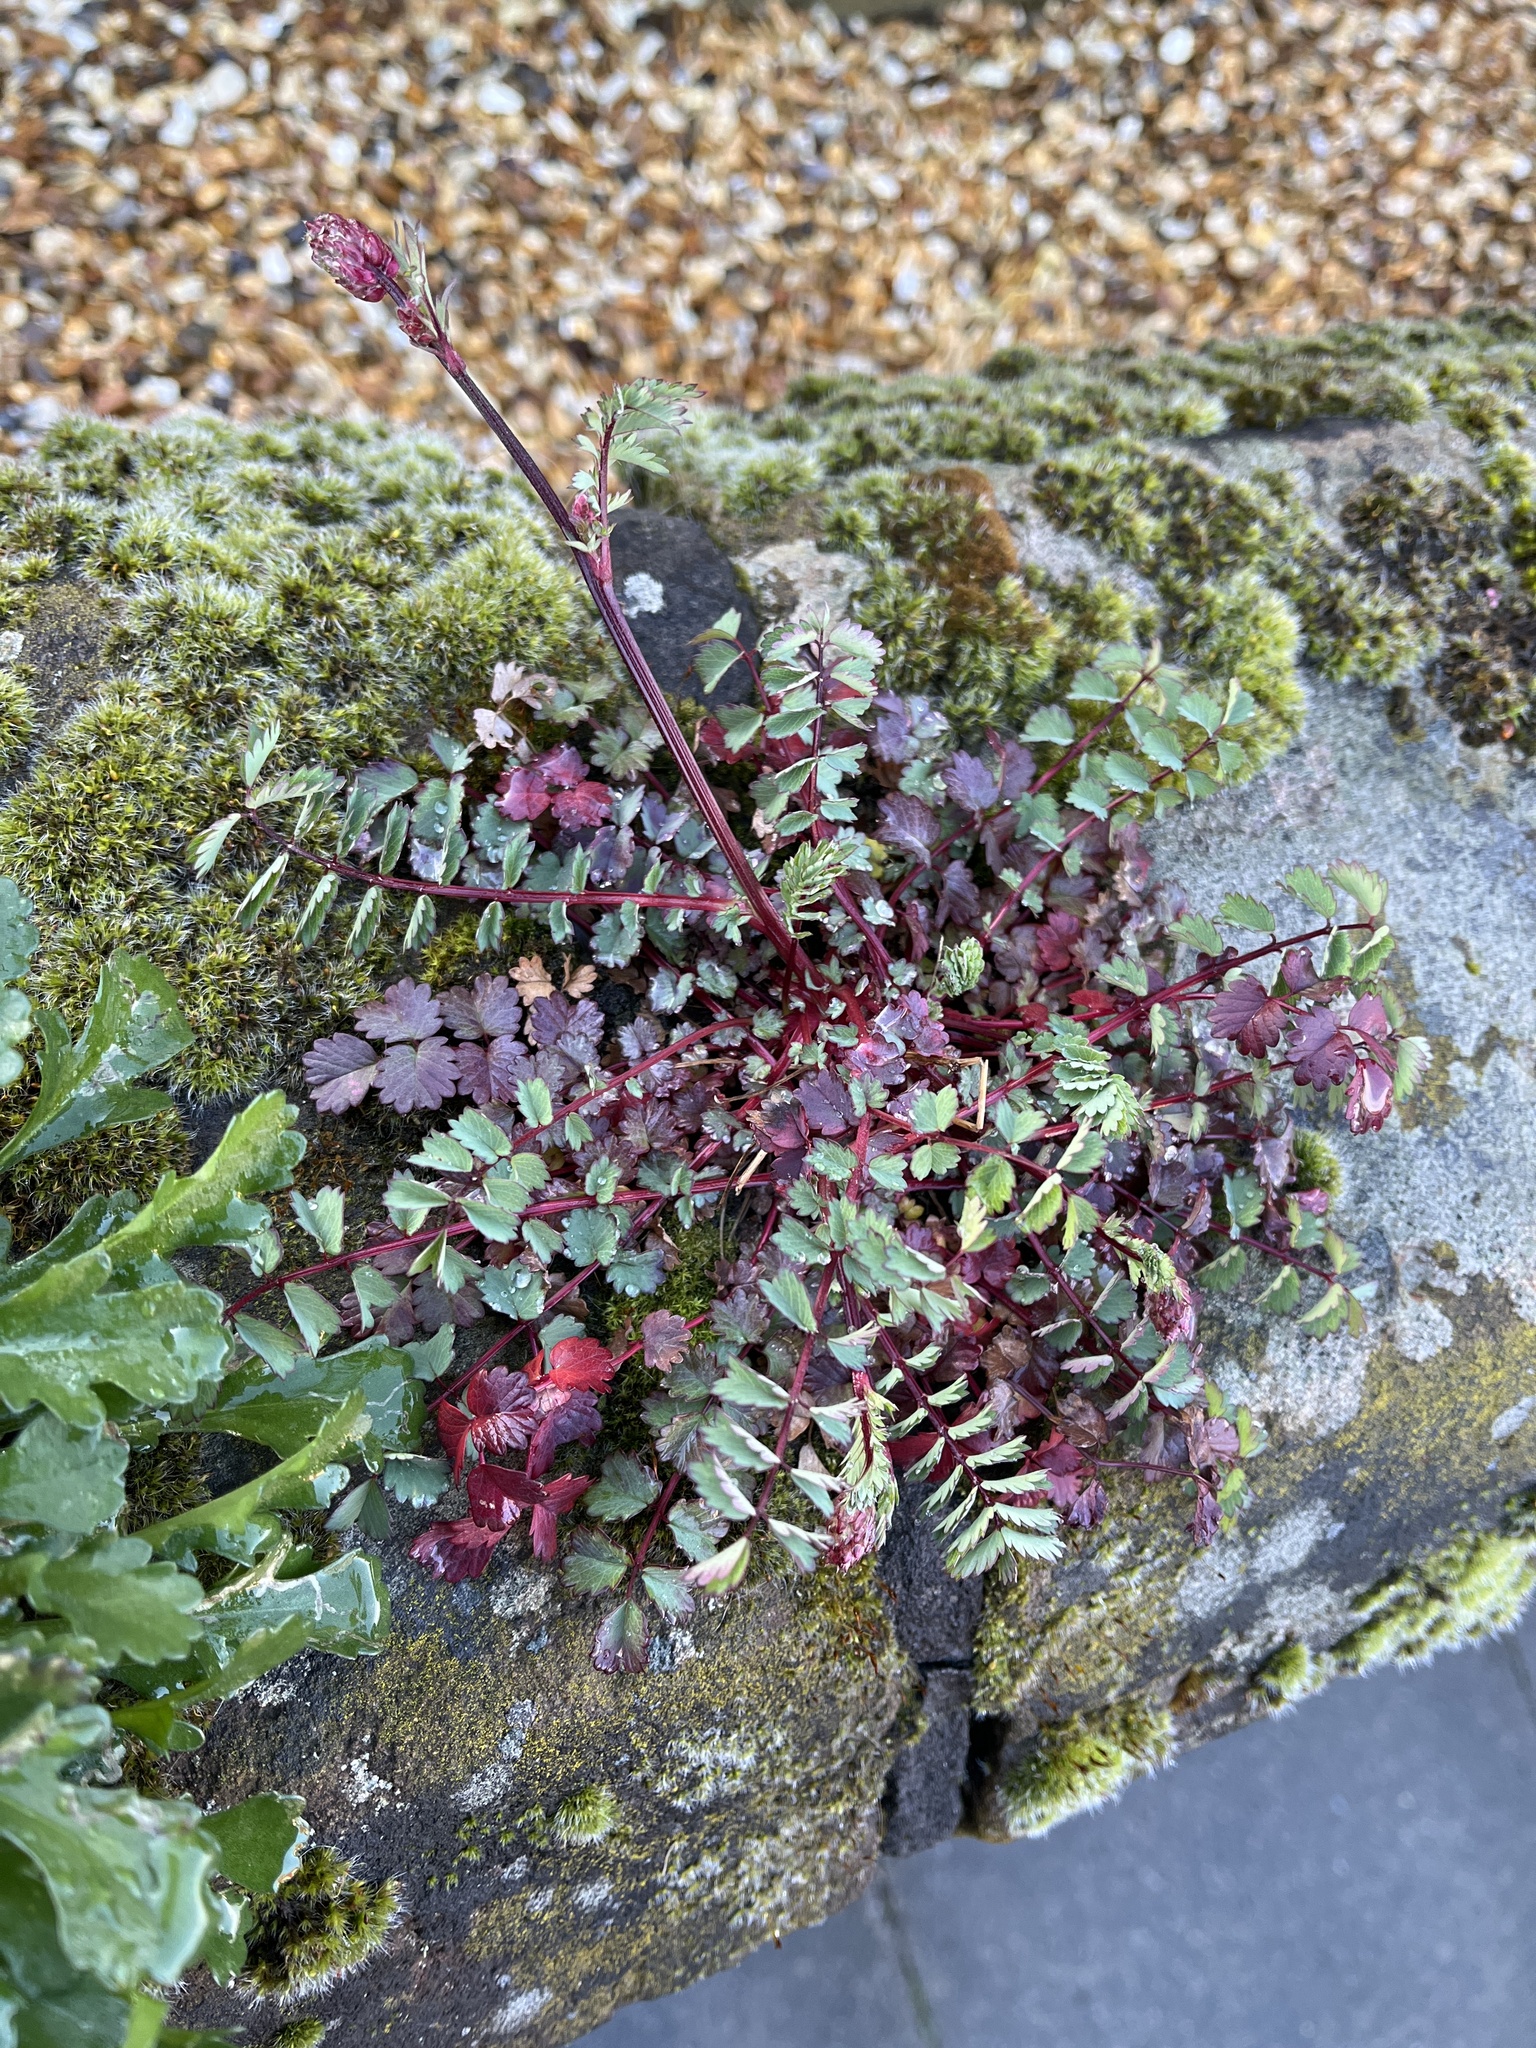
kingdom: Plantae
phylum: Tracheophyta
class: Magnoliopsida
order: Rosales
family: Rosaceae
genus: Poterium
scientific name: Poterium sanguisorba
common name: Salad burnet
